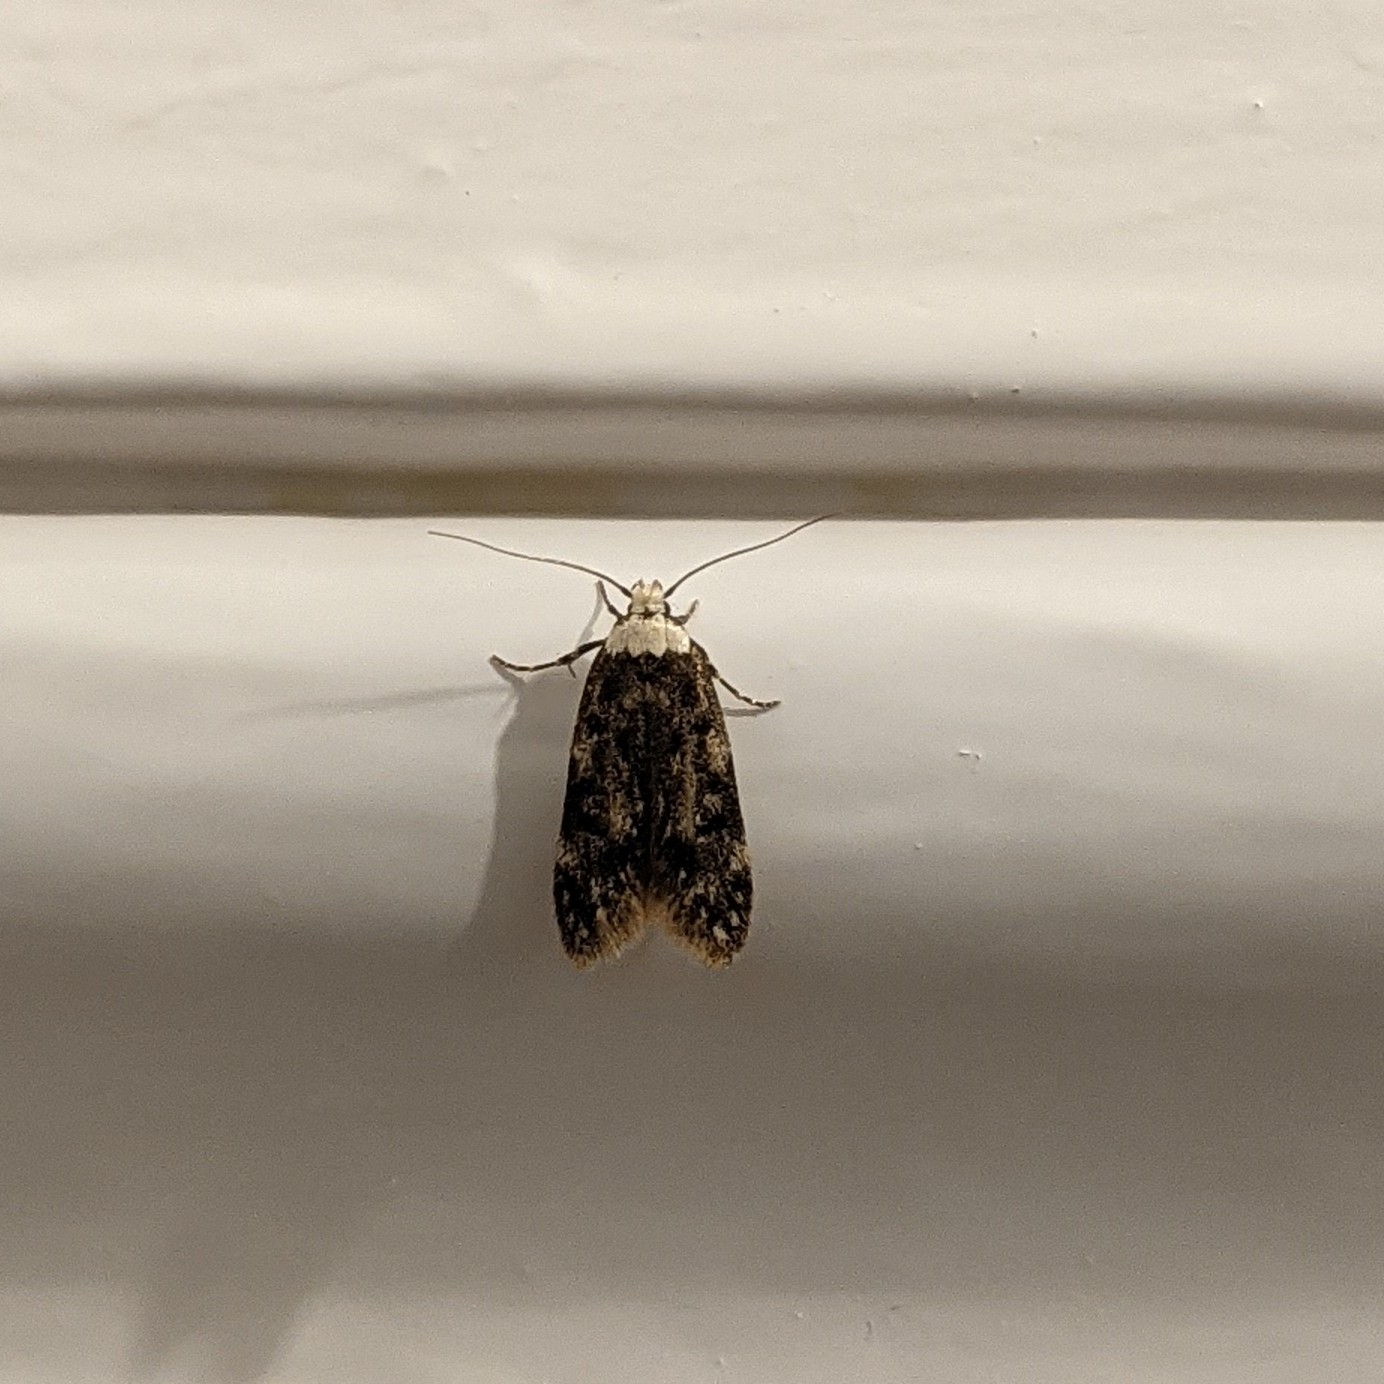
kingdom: Animalia
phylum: Arthropoda
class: Insecta
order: Lepidoptera
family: Oecophoridae
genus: Endrosis
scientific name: Endrosis sarcitrella
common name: White-shouldered house moth
